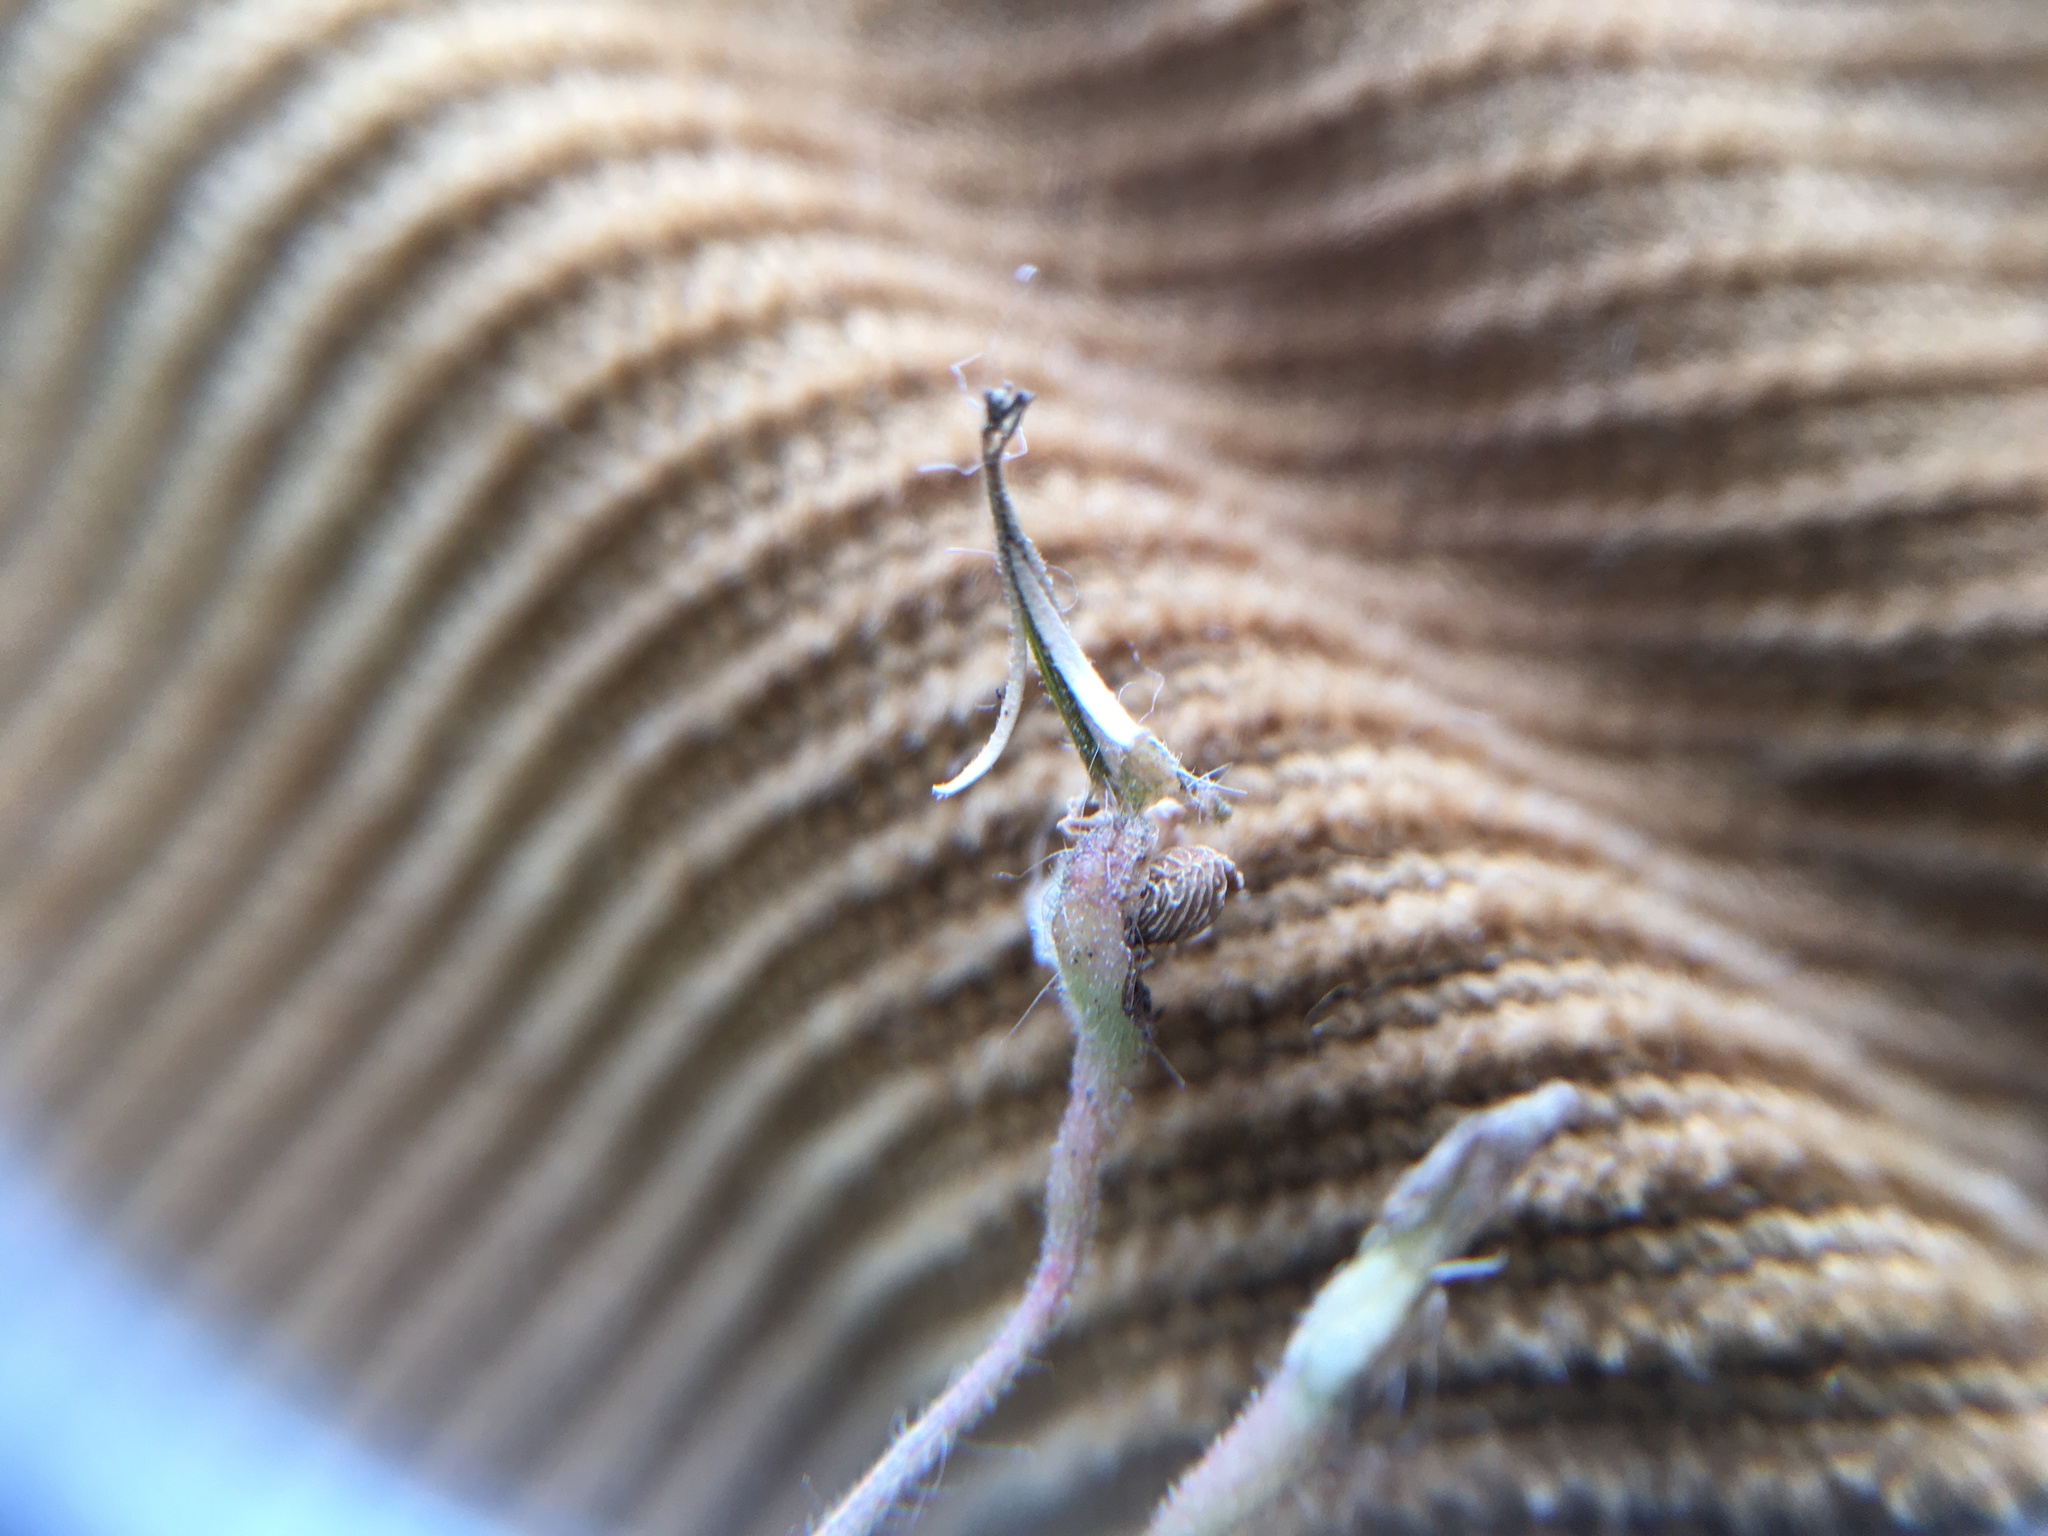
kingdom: Plantae
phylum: Tracheophyta
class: Magnoliopsida
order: Geraniales
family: Geraniaceae
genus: Geranium
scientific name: Geranium molle
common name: Dove's-foot crane's-bill
